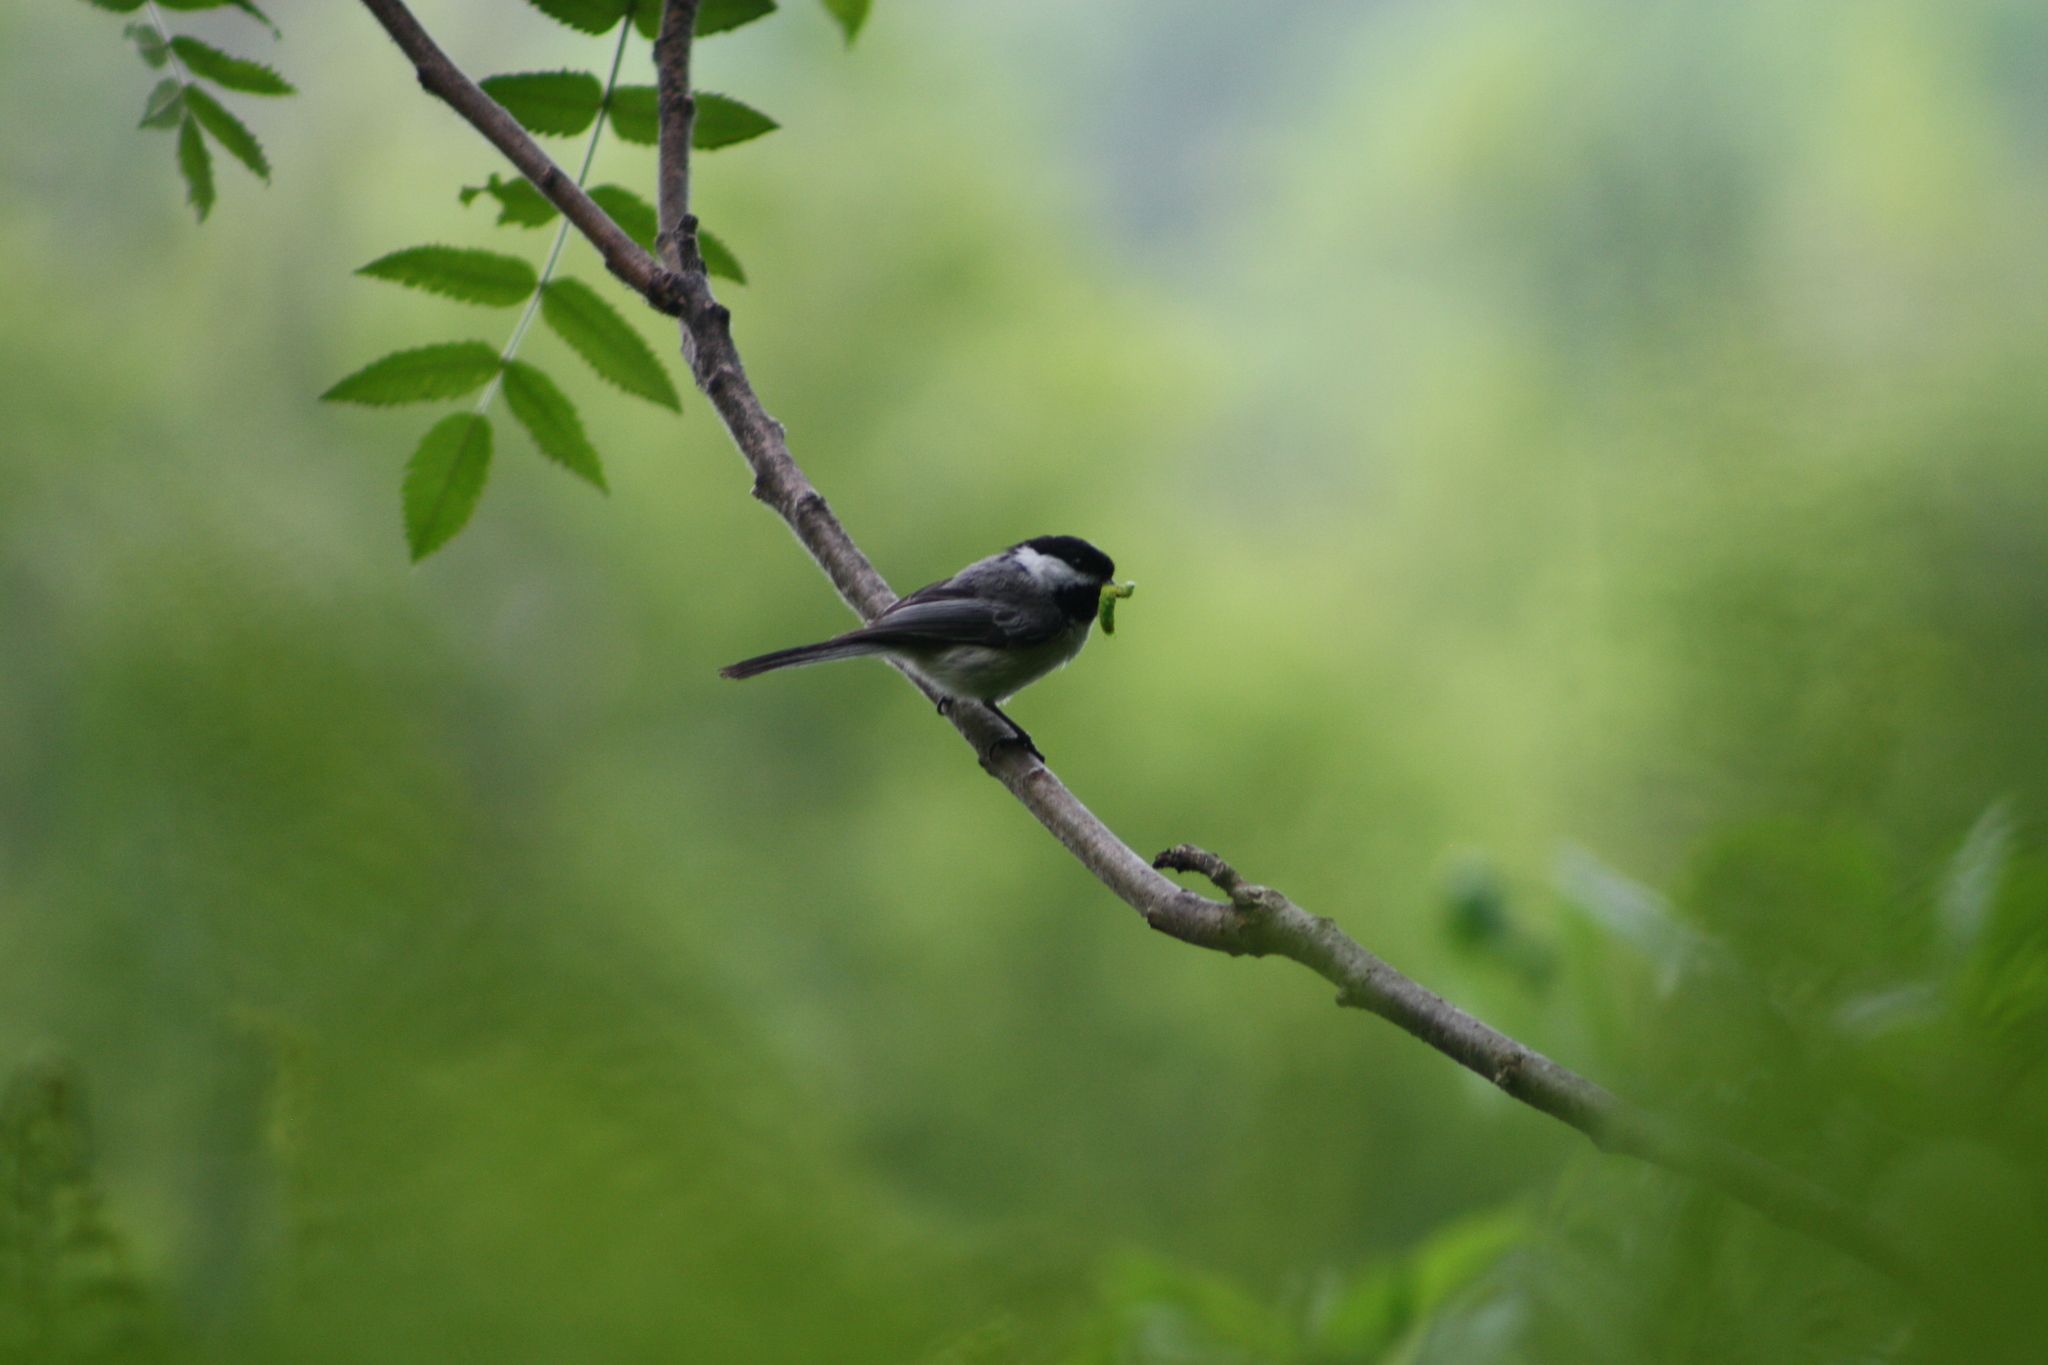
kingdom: Animalia
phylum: Chordata
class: Aves
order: Passeriformes
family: Paridae
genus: Poecile
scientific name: Poecile atricapillus
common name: Black-capped chickadee
